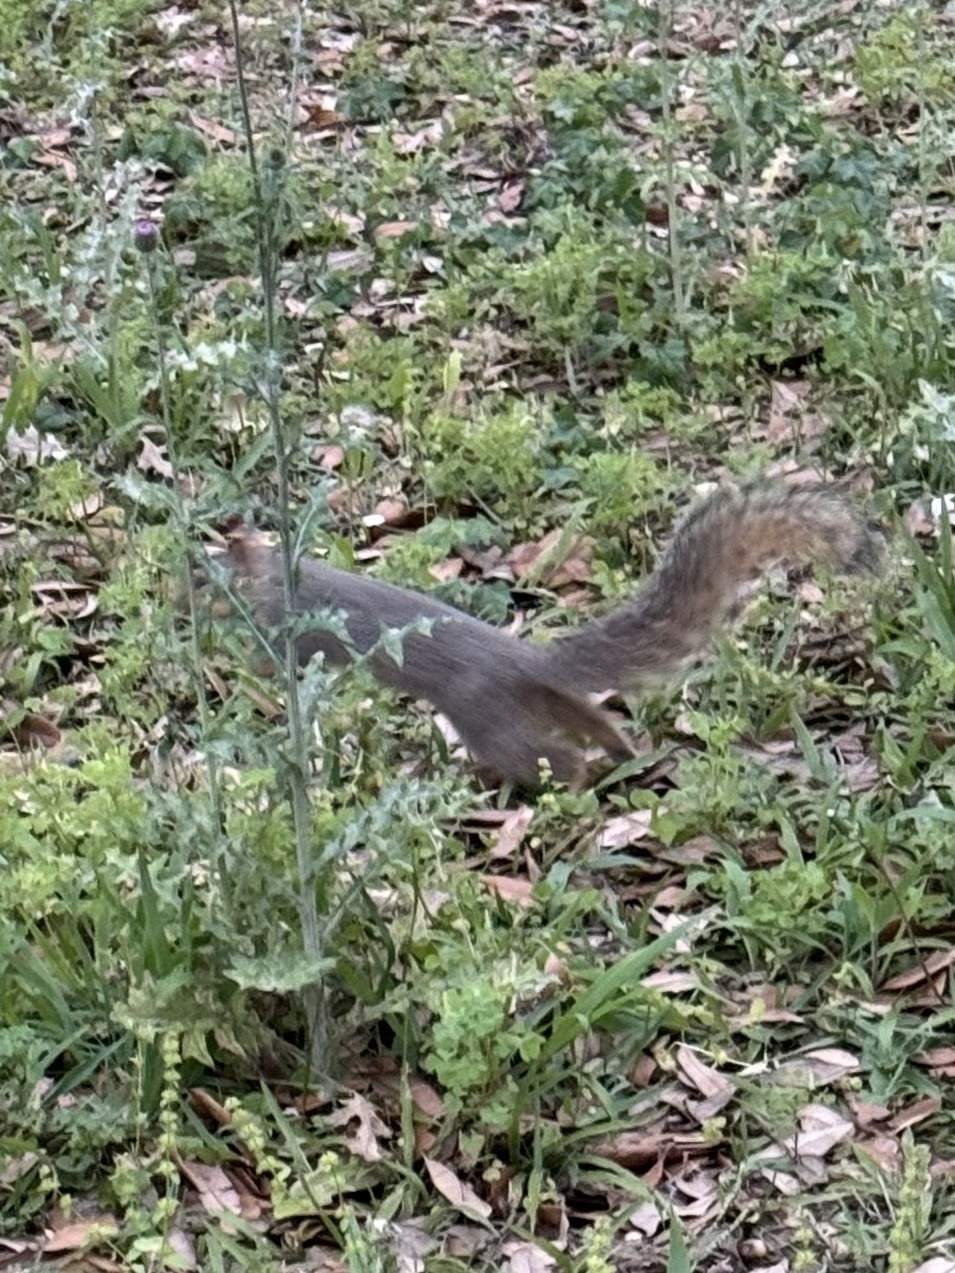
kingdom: Animalia
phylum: Chordata
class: Mammalia
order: Rodentia
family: Sciuridae
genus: Sciurus
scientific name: Sciurus carolinensis
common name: Eastern gray squirrel
